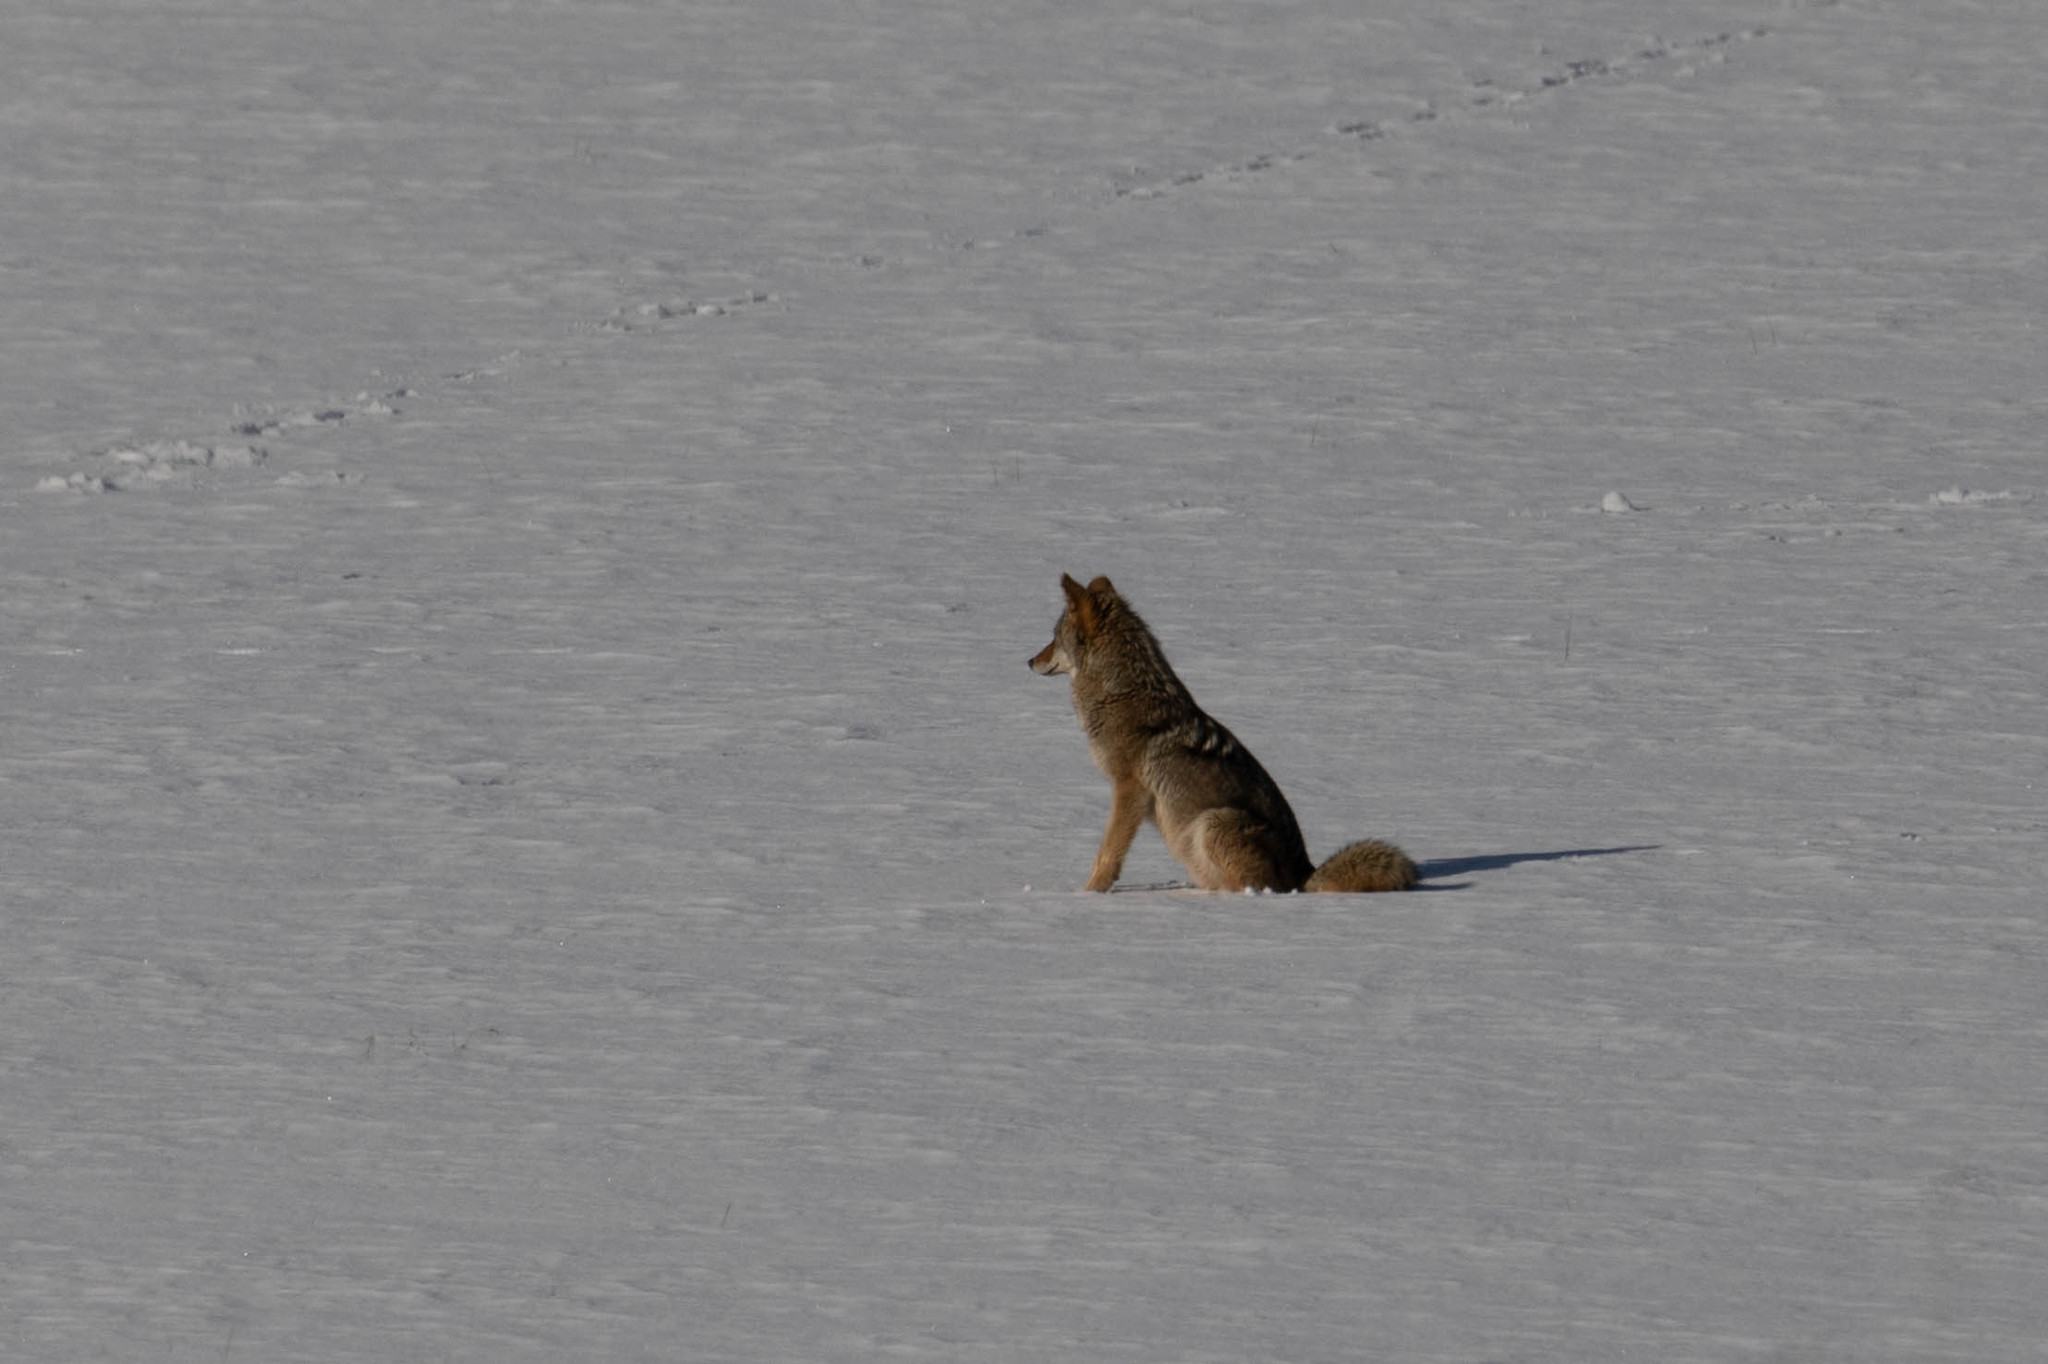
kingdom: Animalia
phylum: Chordata
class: Mammalia
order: Carnivora
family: Canidae
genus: Canis
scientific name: Canis latrans
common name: Coyote
